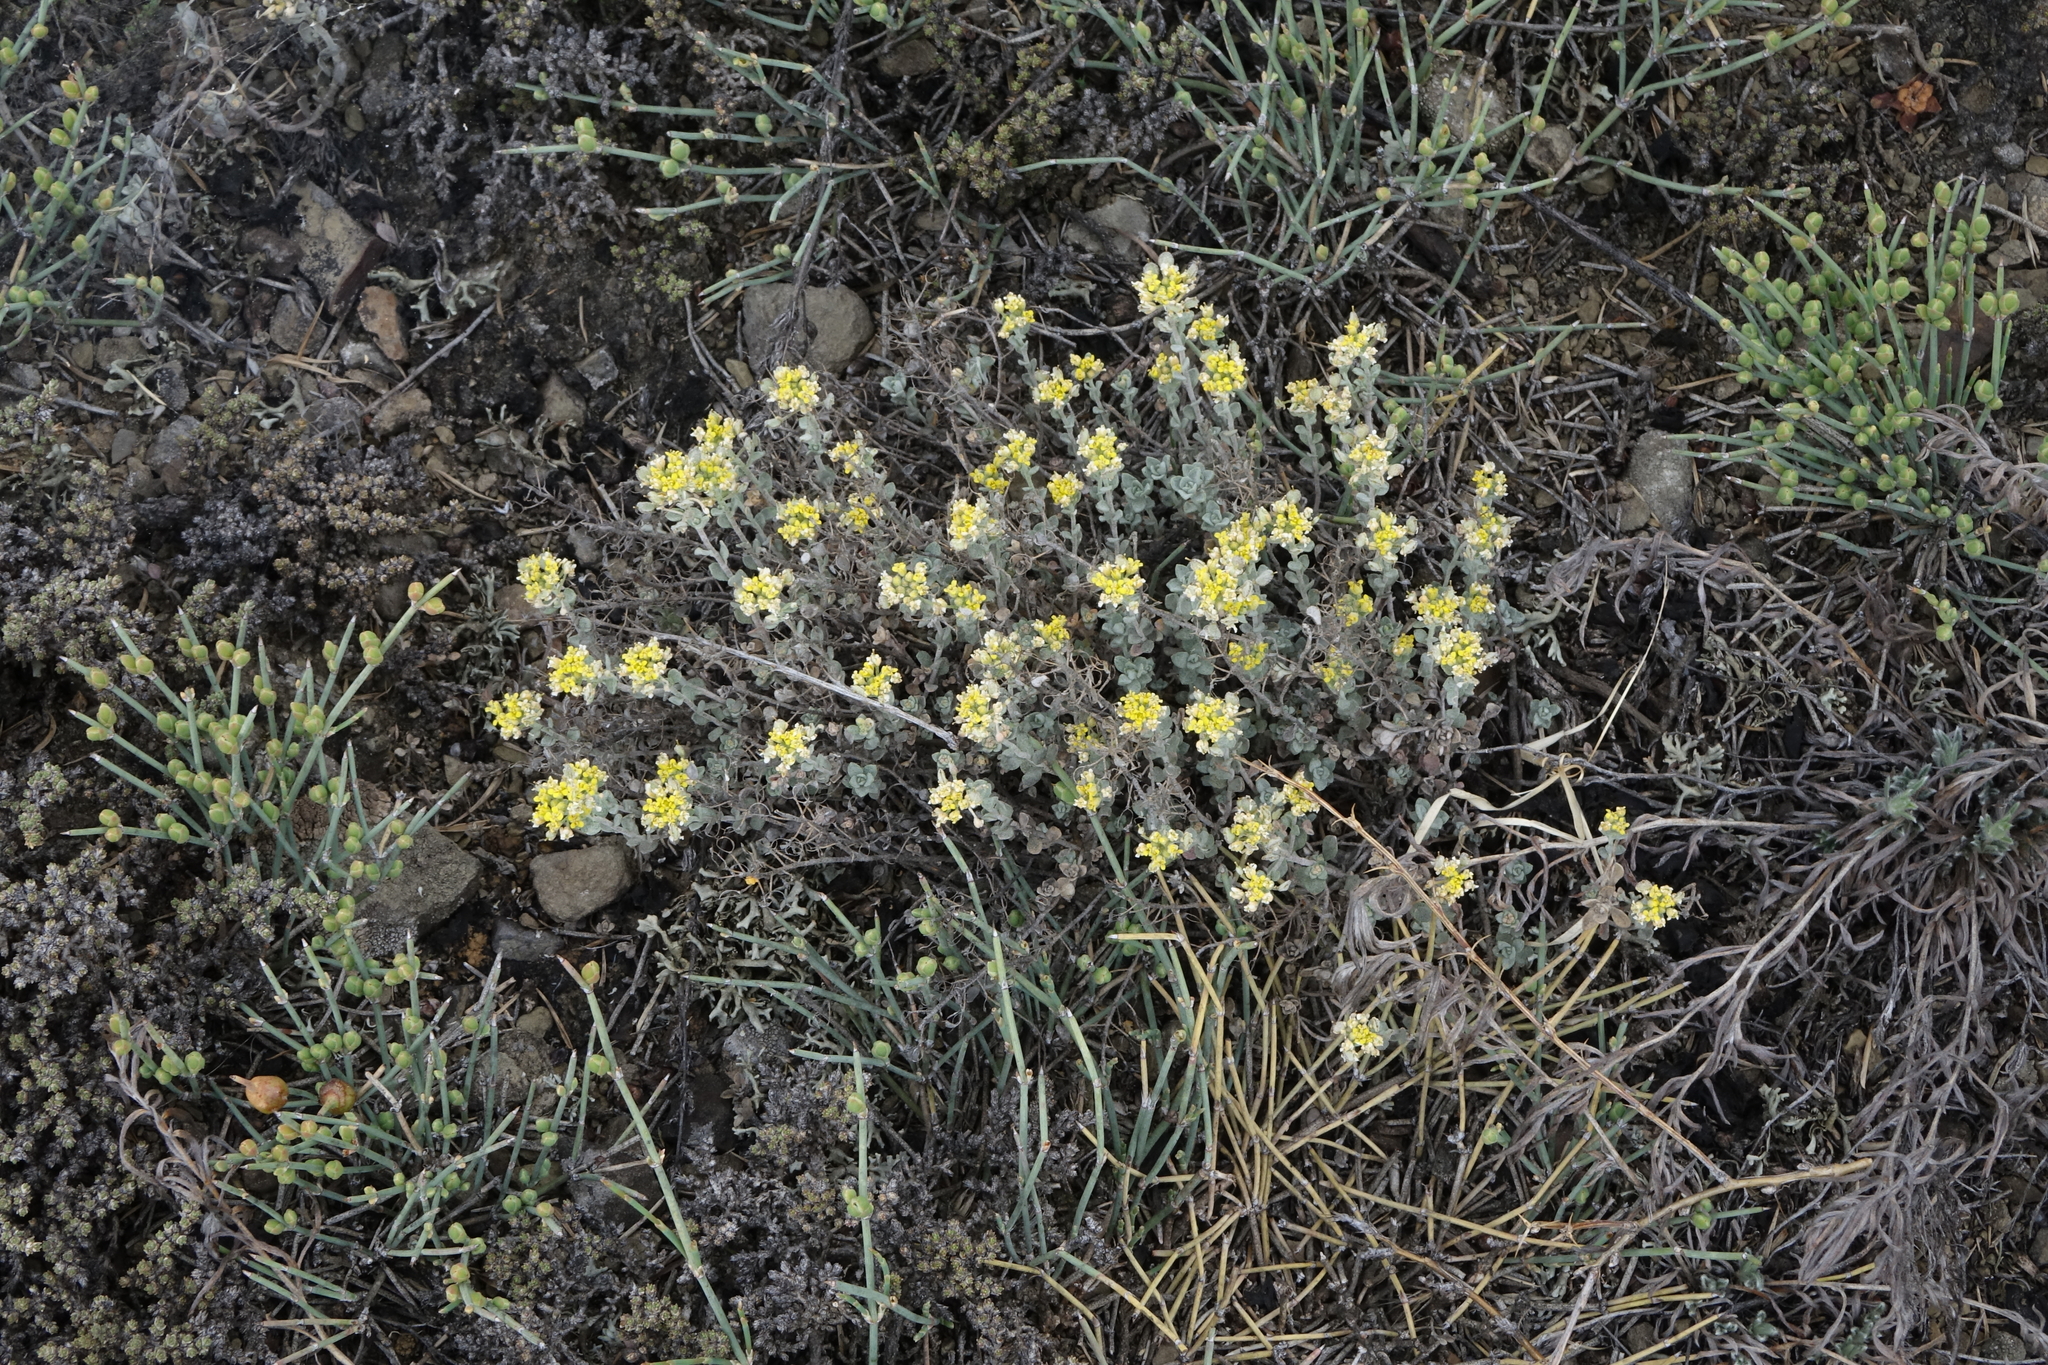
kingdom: Plantae
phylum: Tracheophyta
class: Magnoliopsida
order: Brassicales
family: Brassicaceae
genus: Odontarrhena
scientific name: Odontarrhena obovata
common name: American alyssum
